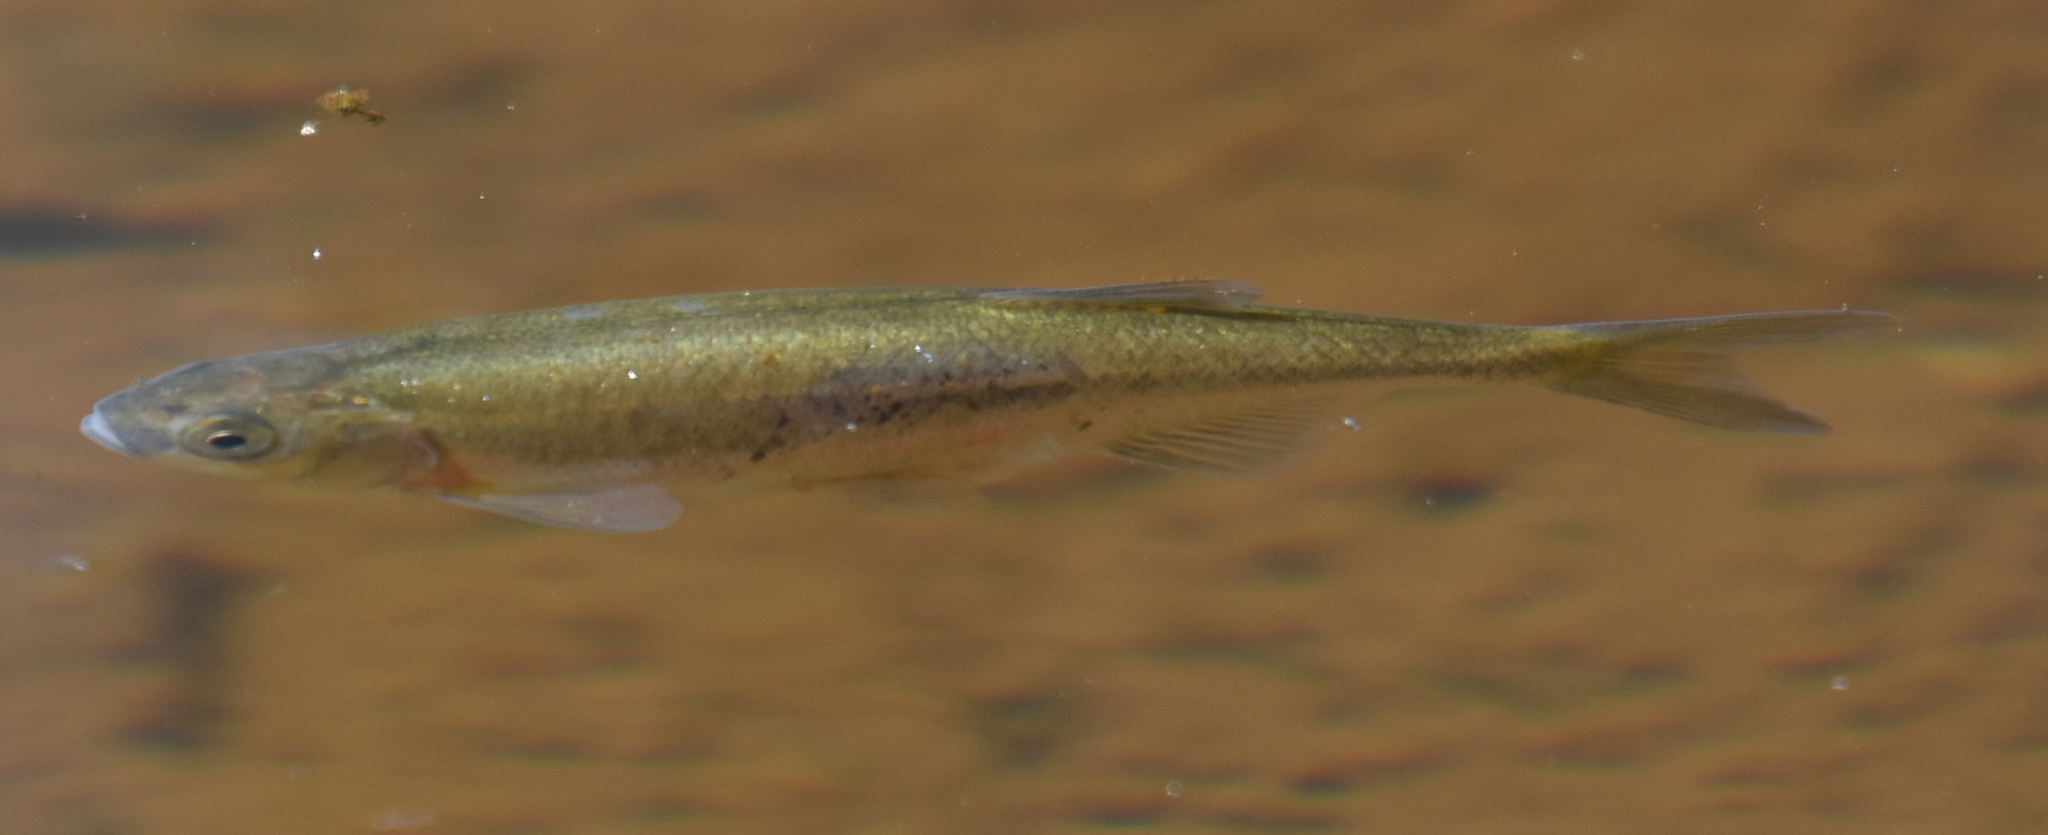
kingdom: Animalia
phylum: Chordata
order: Cypriniformes
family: Cyprinidae
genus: Richardsonius
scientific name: Richardsonius balteatus
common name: Redside shiner
